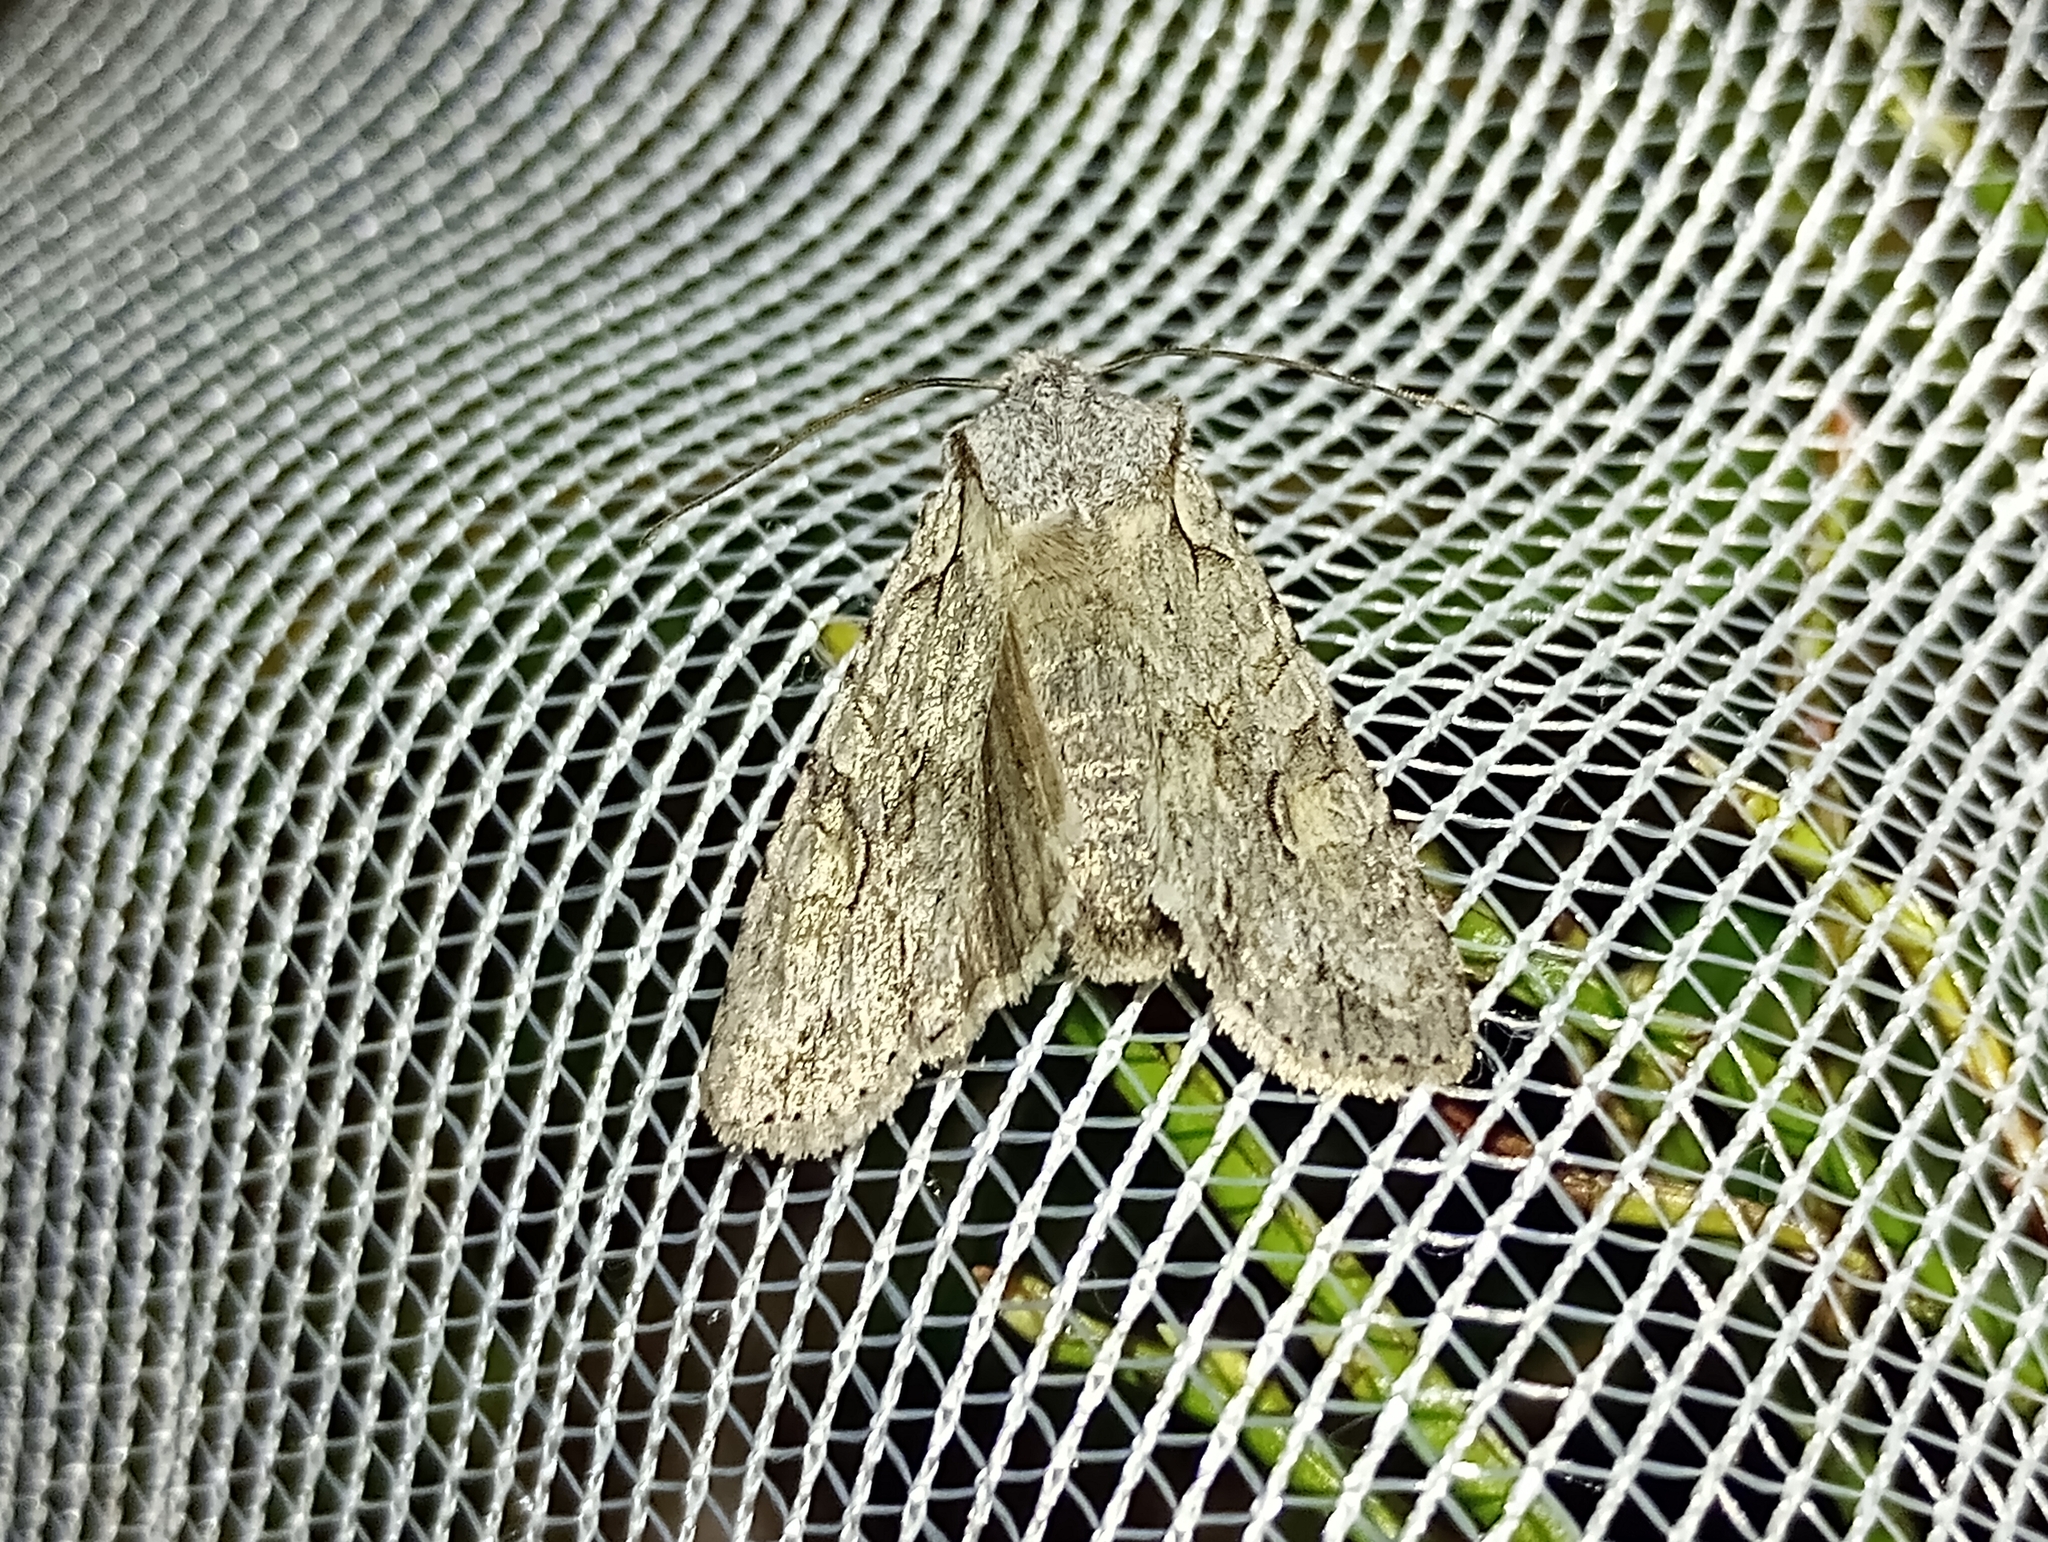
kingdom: Animalia
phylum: Arthropoda
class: Insecta
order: Lepidoptera
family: Noctuidae
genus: Lithophane
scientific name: Lithophane ornitopus
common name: Grey shoulder-knot
